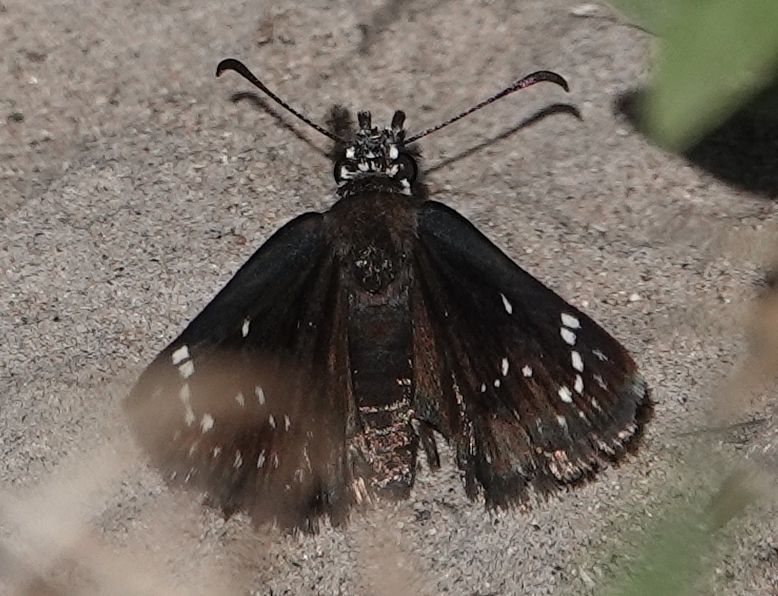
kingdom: Animalia
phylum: Arthropoda
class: Insecta
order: Lepidoptera
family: Hesperiidae
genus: Pholisora
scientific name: Pholisora catullus
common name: Common sootywing
